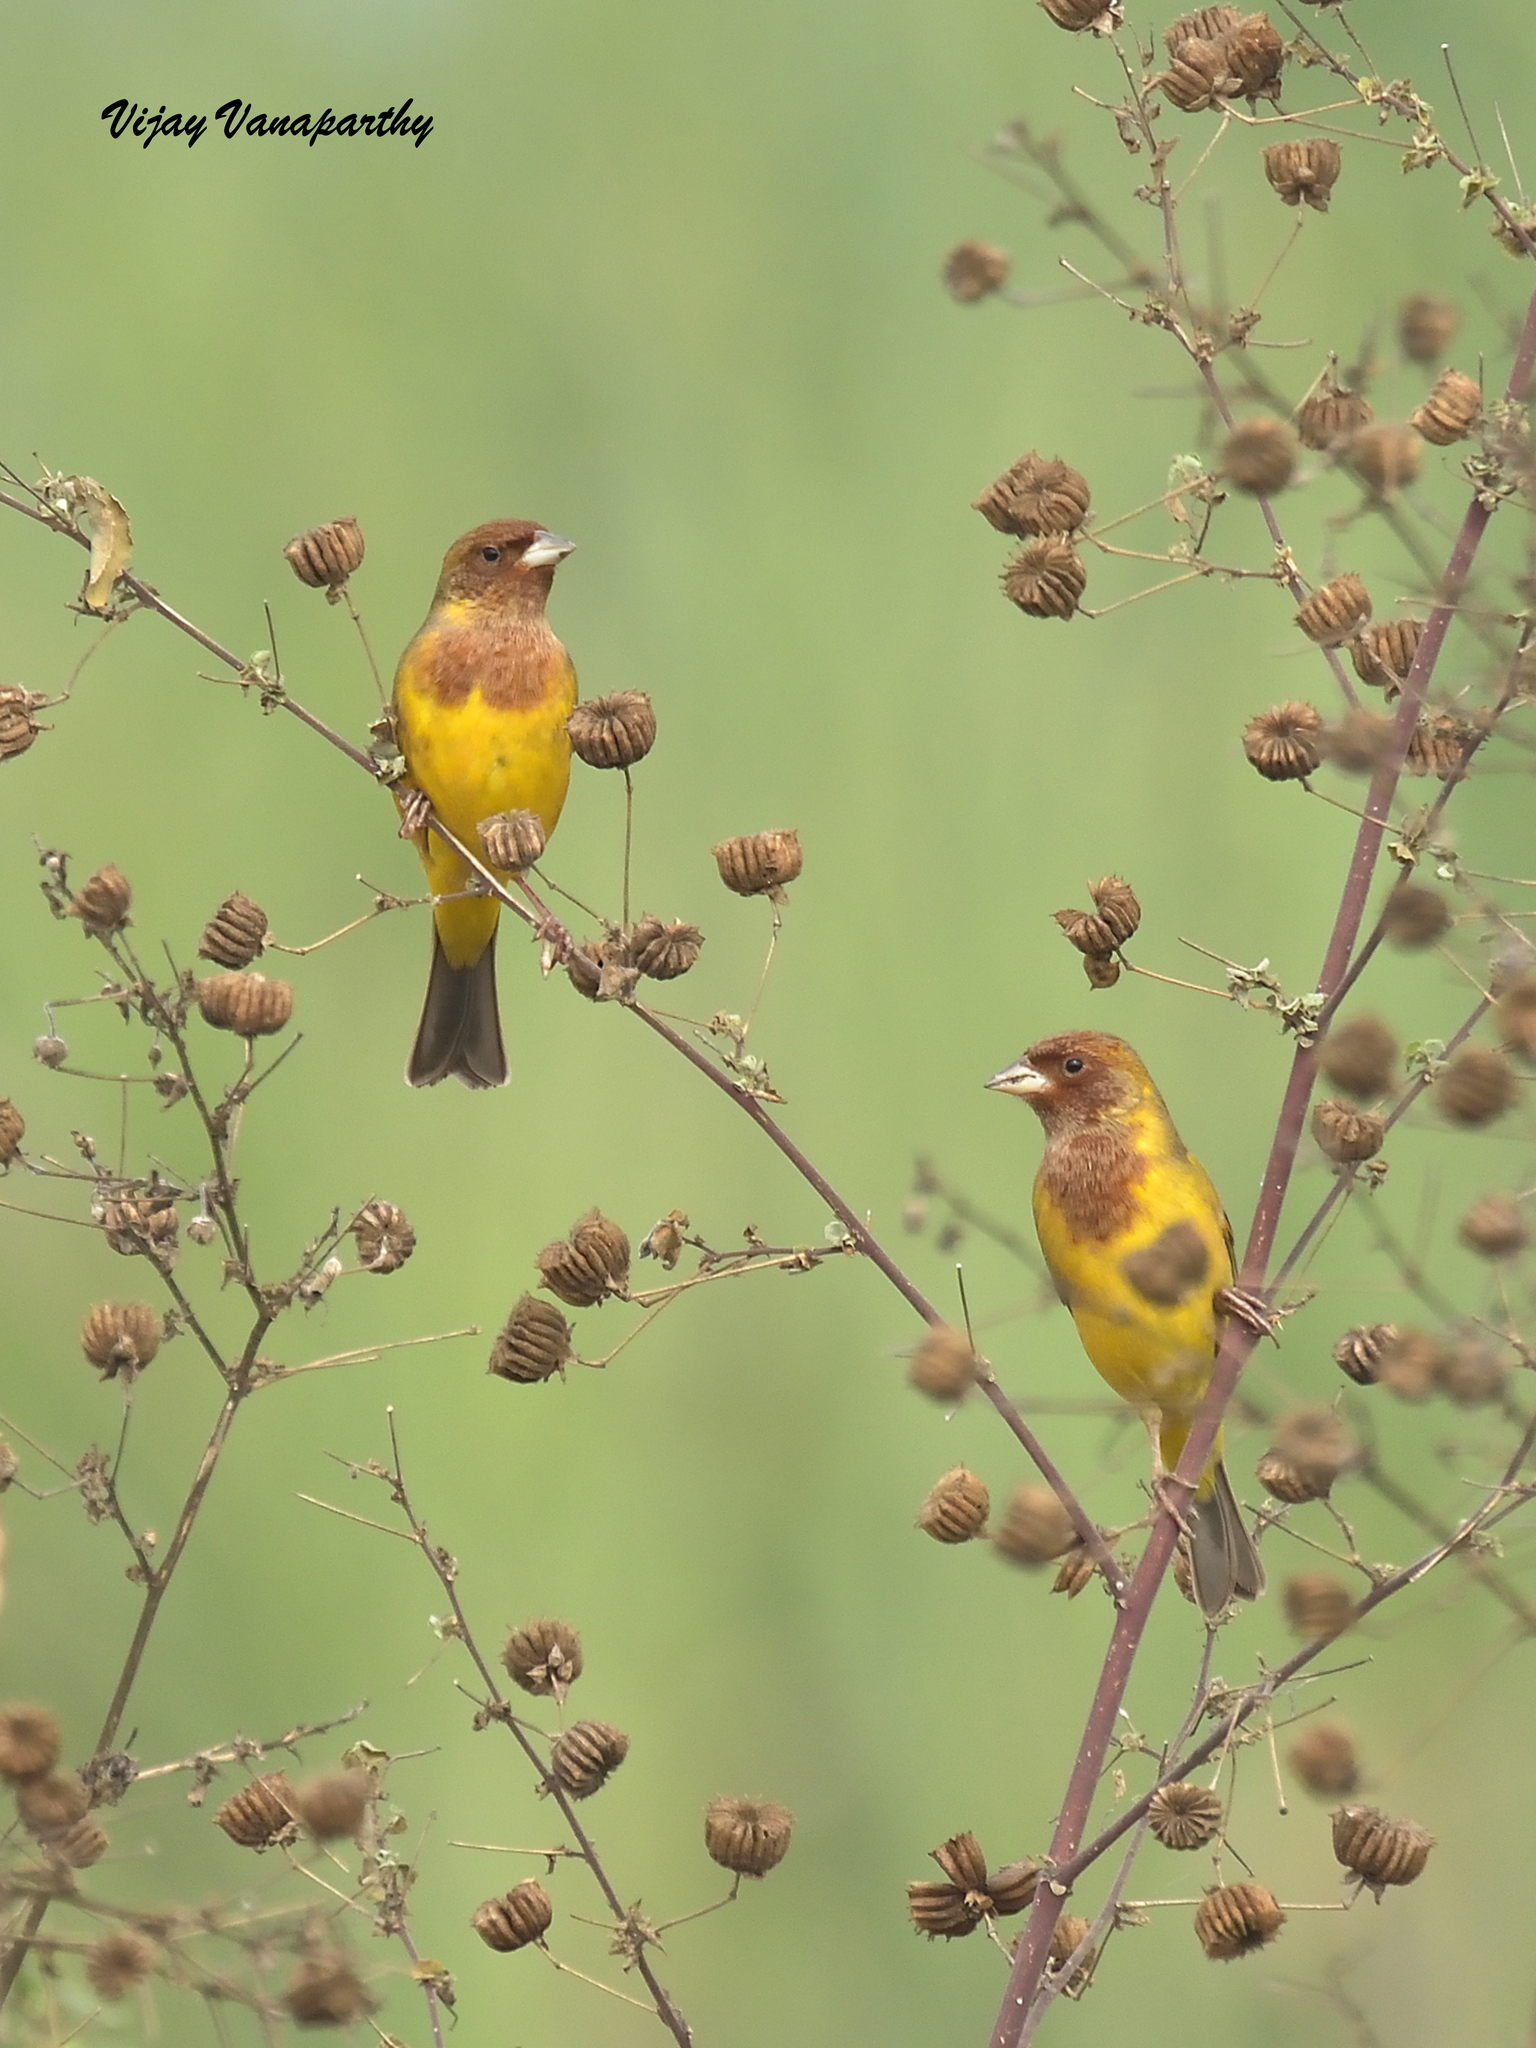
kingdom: Animalia
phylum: Chordata
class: Aves
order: Passeriformes
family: Emberizidae
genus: Emberiza
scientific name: Emberiza bruniceps
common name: Red-headed bunting
